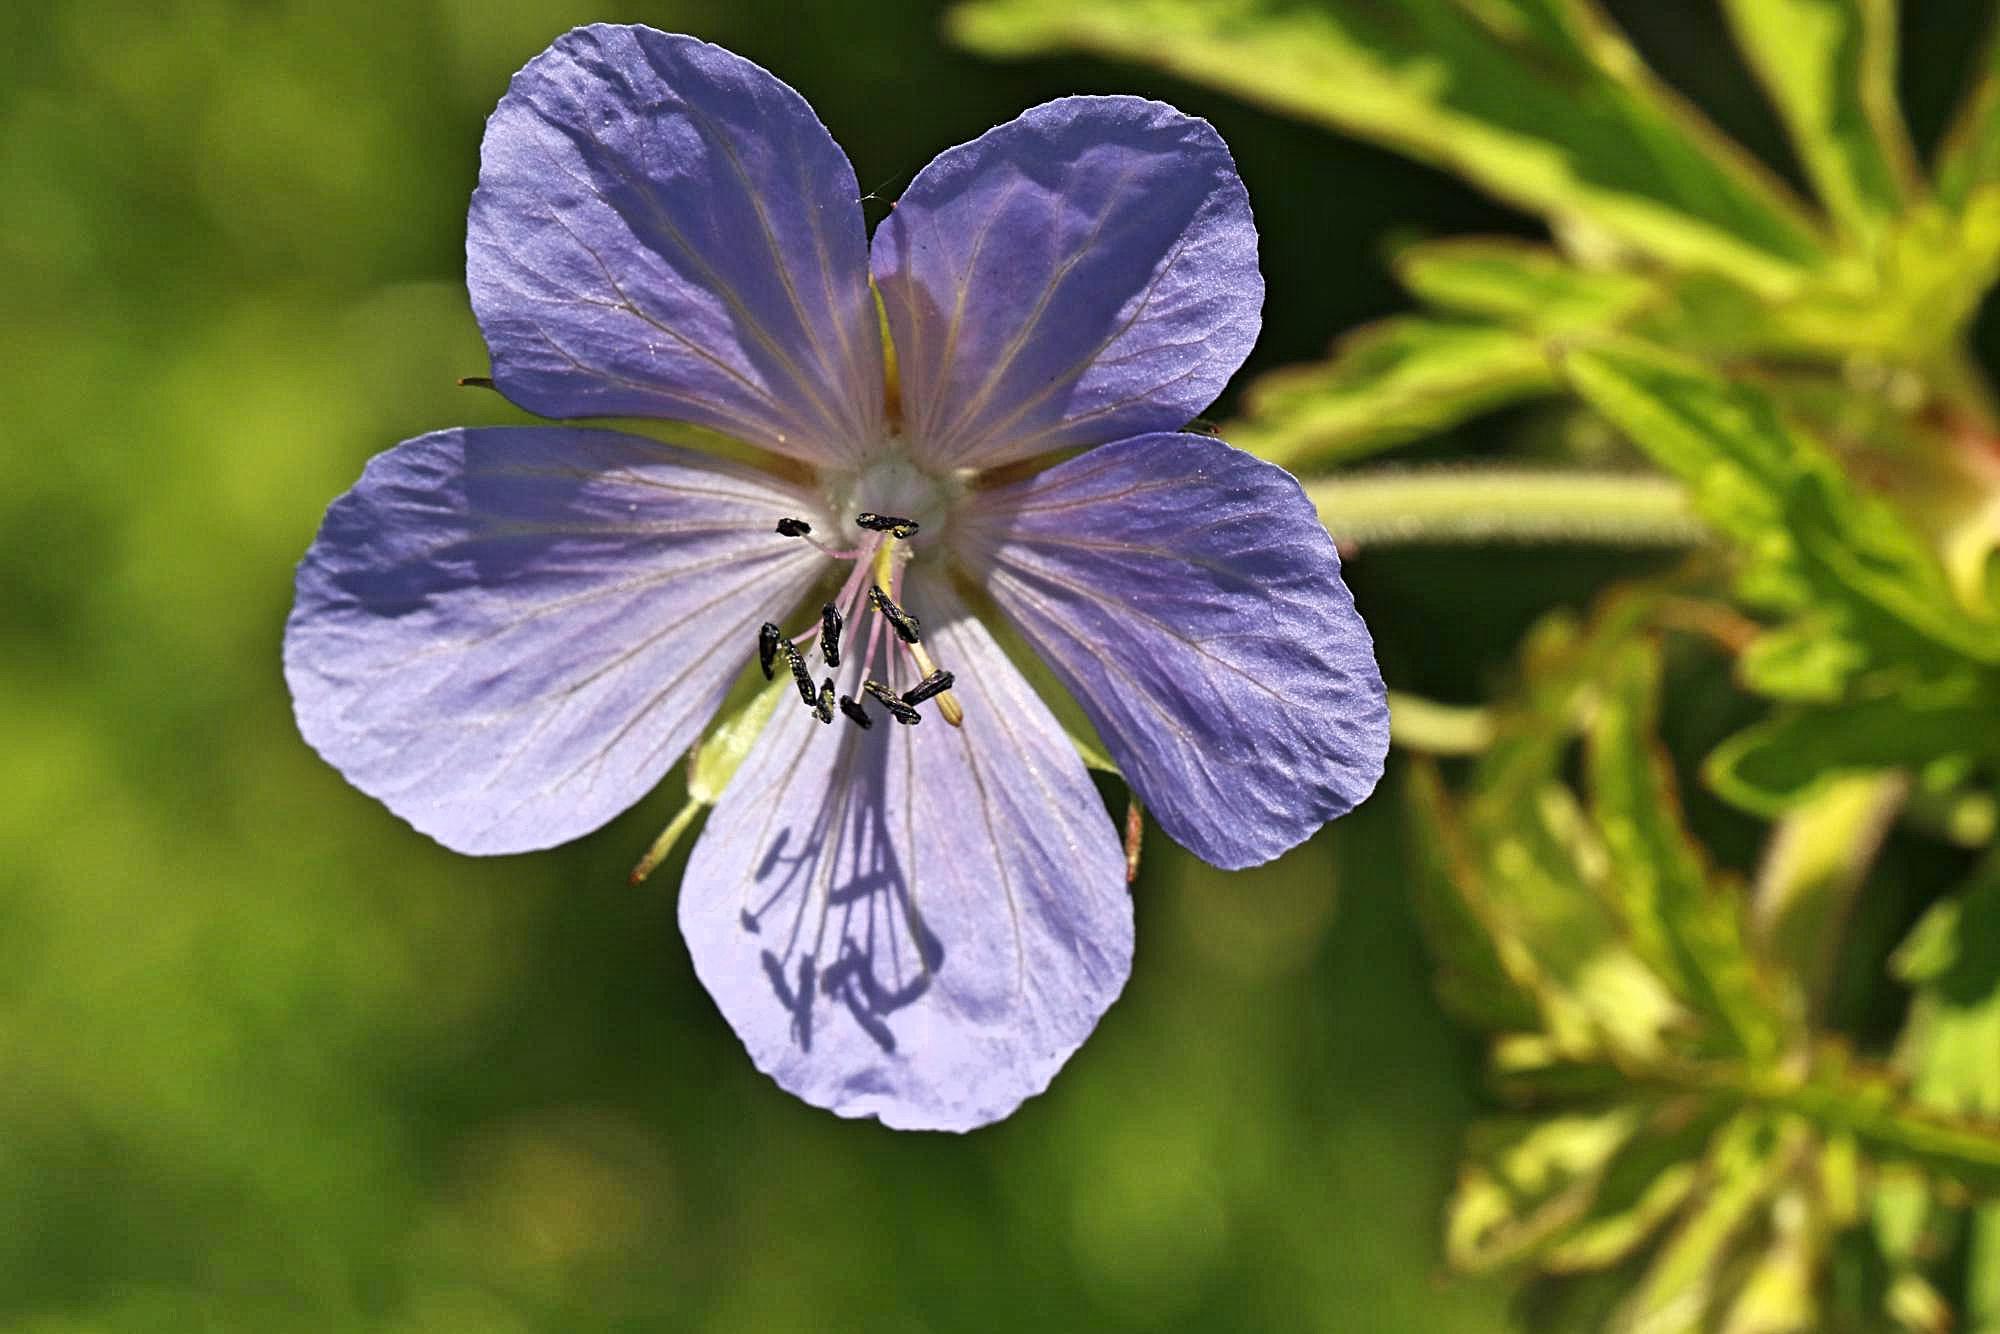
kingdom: Plantae
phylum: Tracheophyta
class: Magnoliopsida
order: Geraniales
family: Geraniaceae
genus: Geranium
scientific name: Geranium pratense
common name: Meadow crane's-bill
